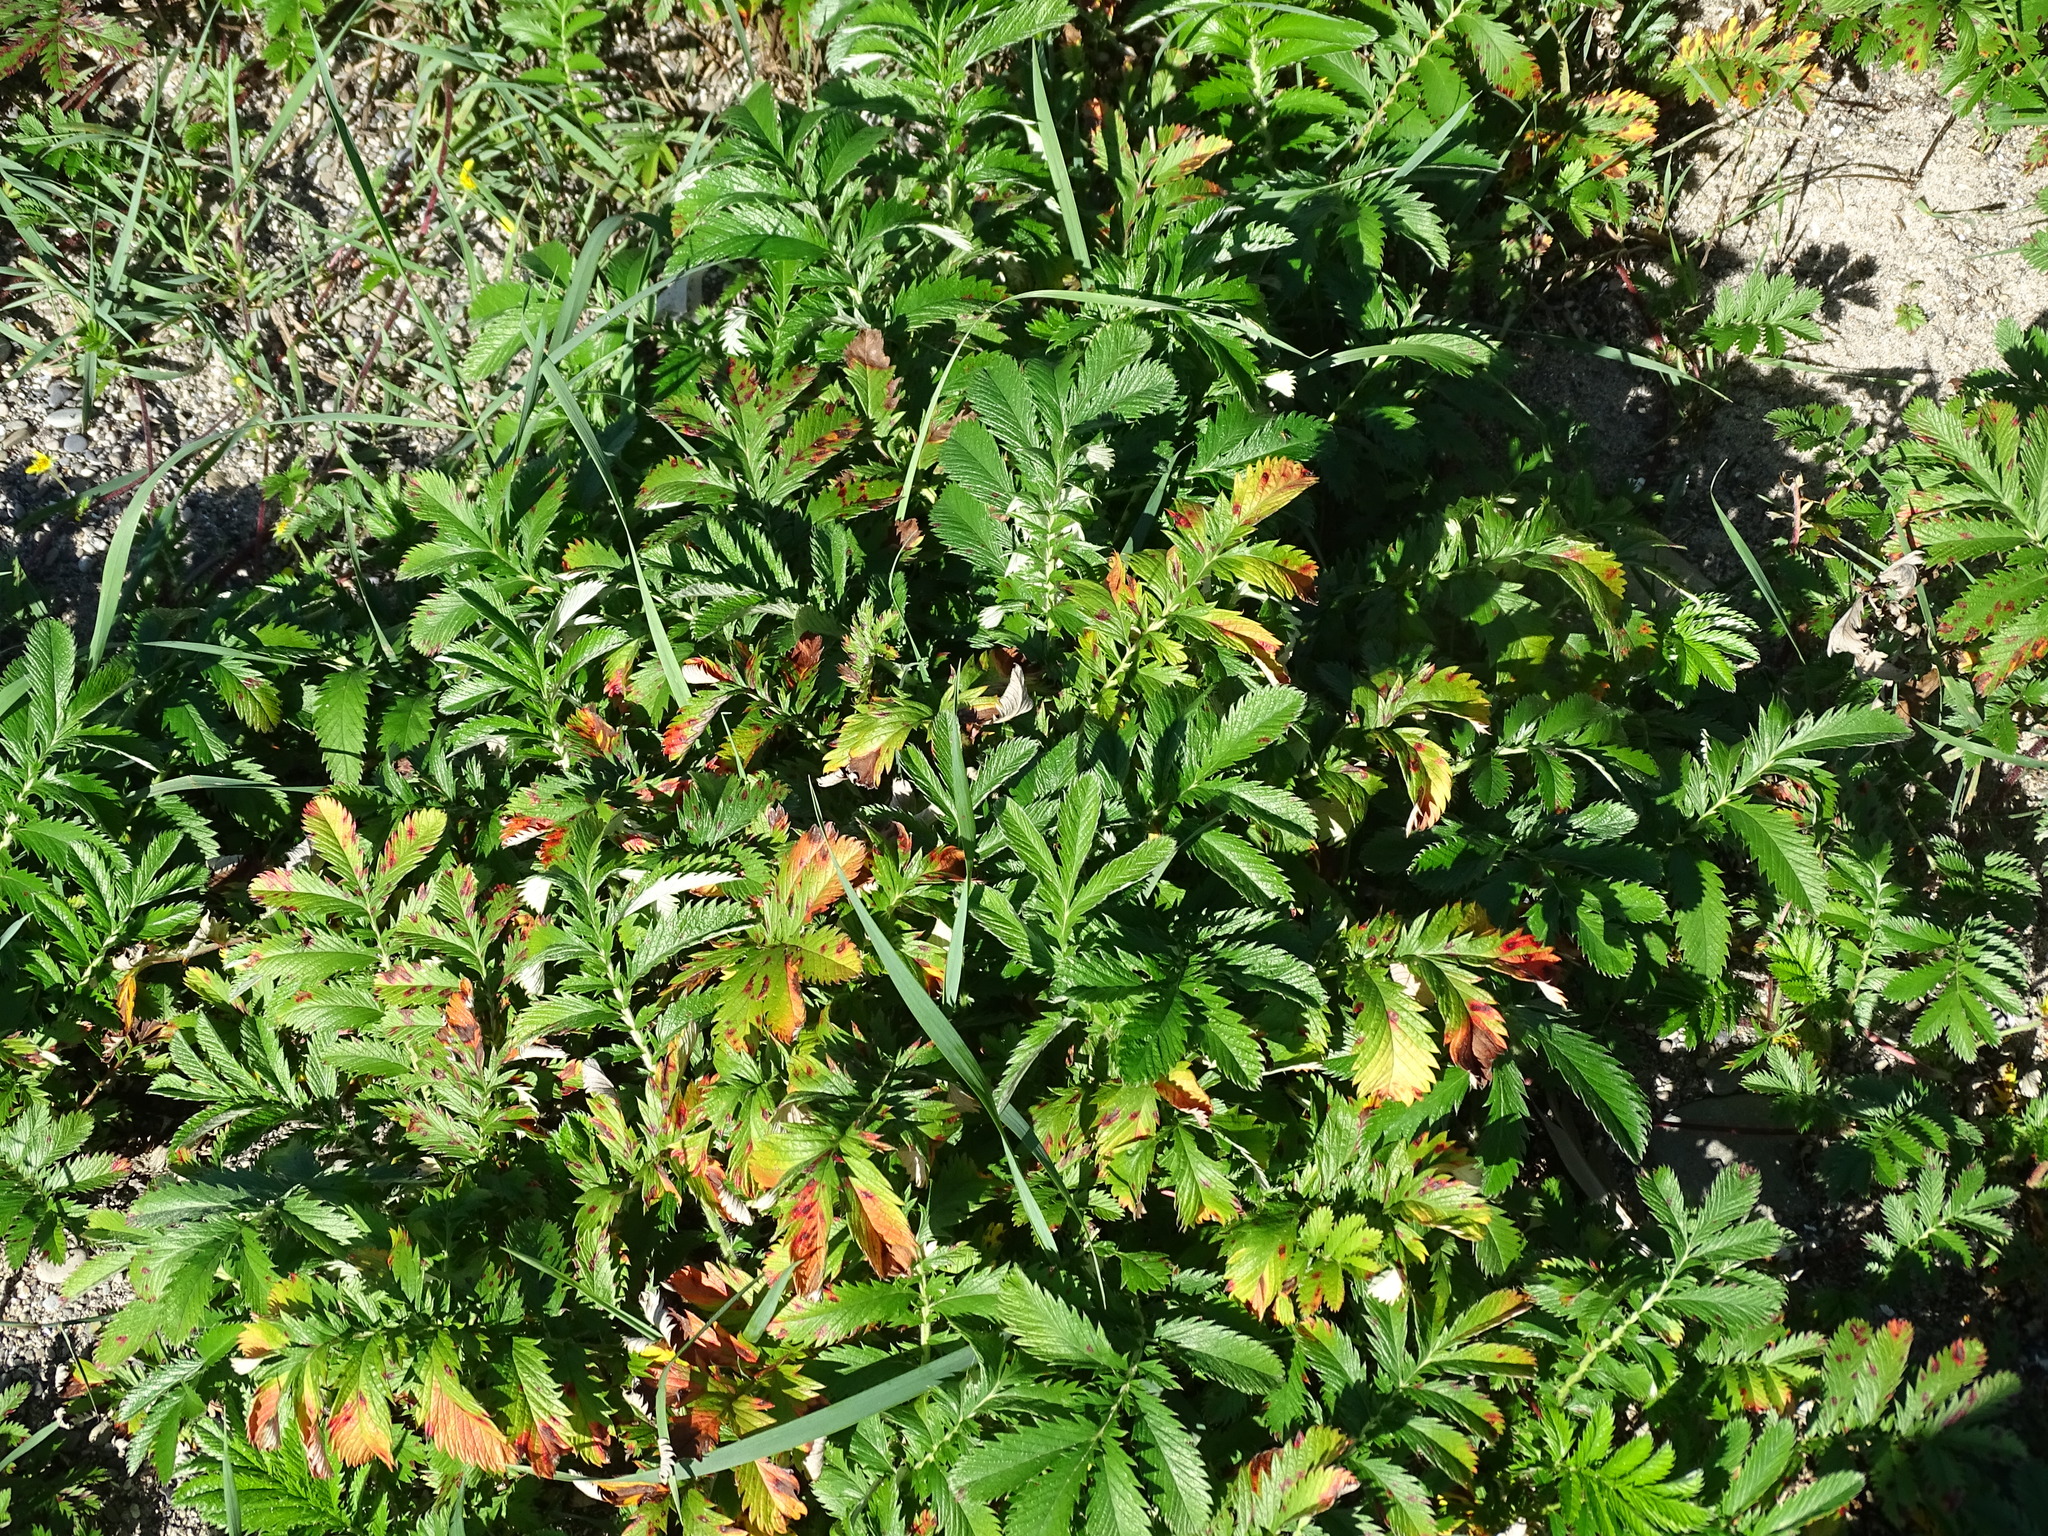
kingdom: Plantae
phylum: Tracheophyta
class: Magnoliopsida
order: Rosales
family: Rosaceae
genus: Argentina
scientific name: Argentina anserina
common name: Common silverweed
